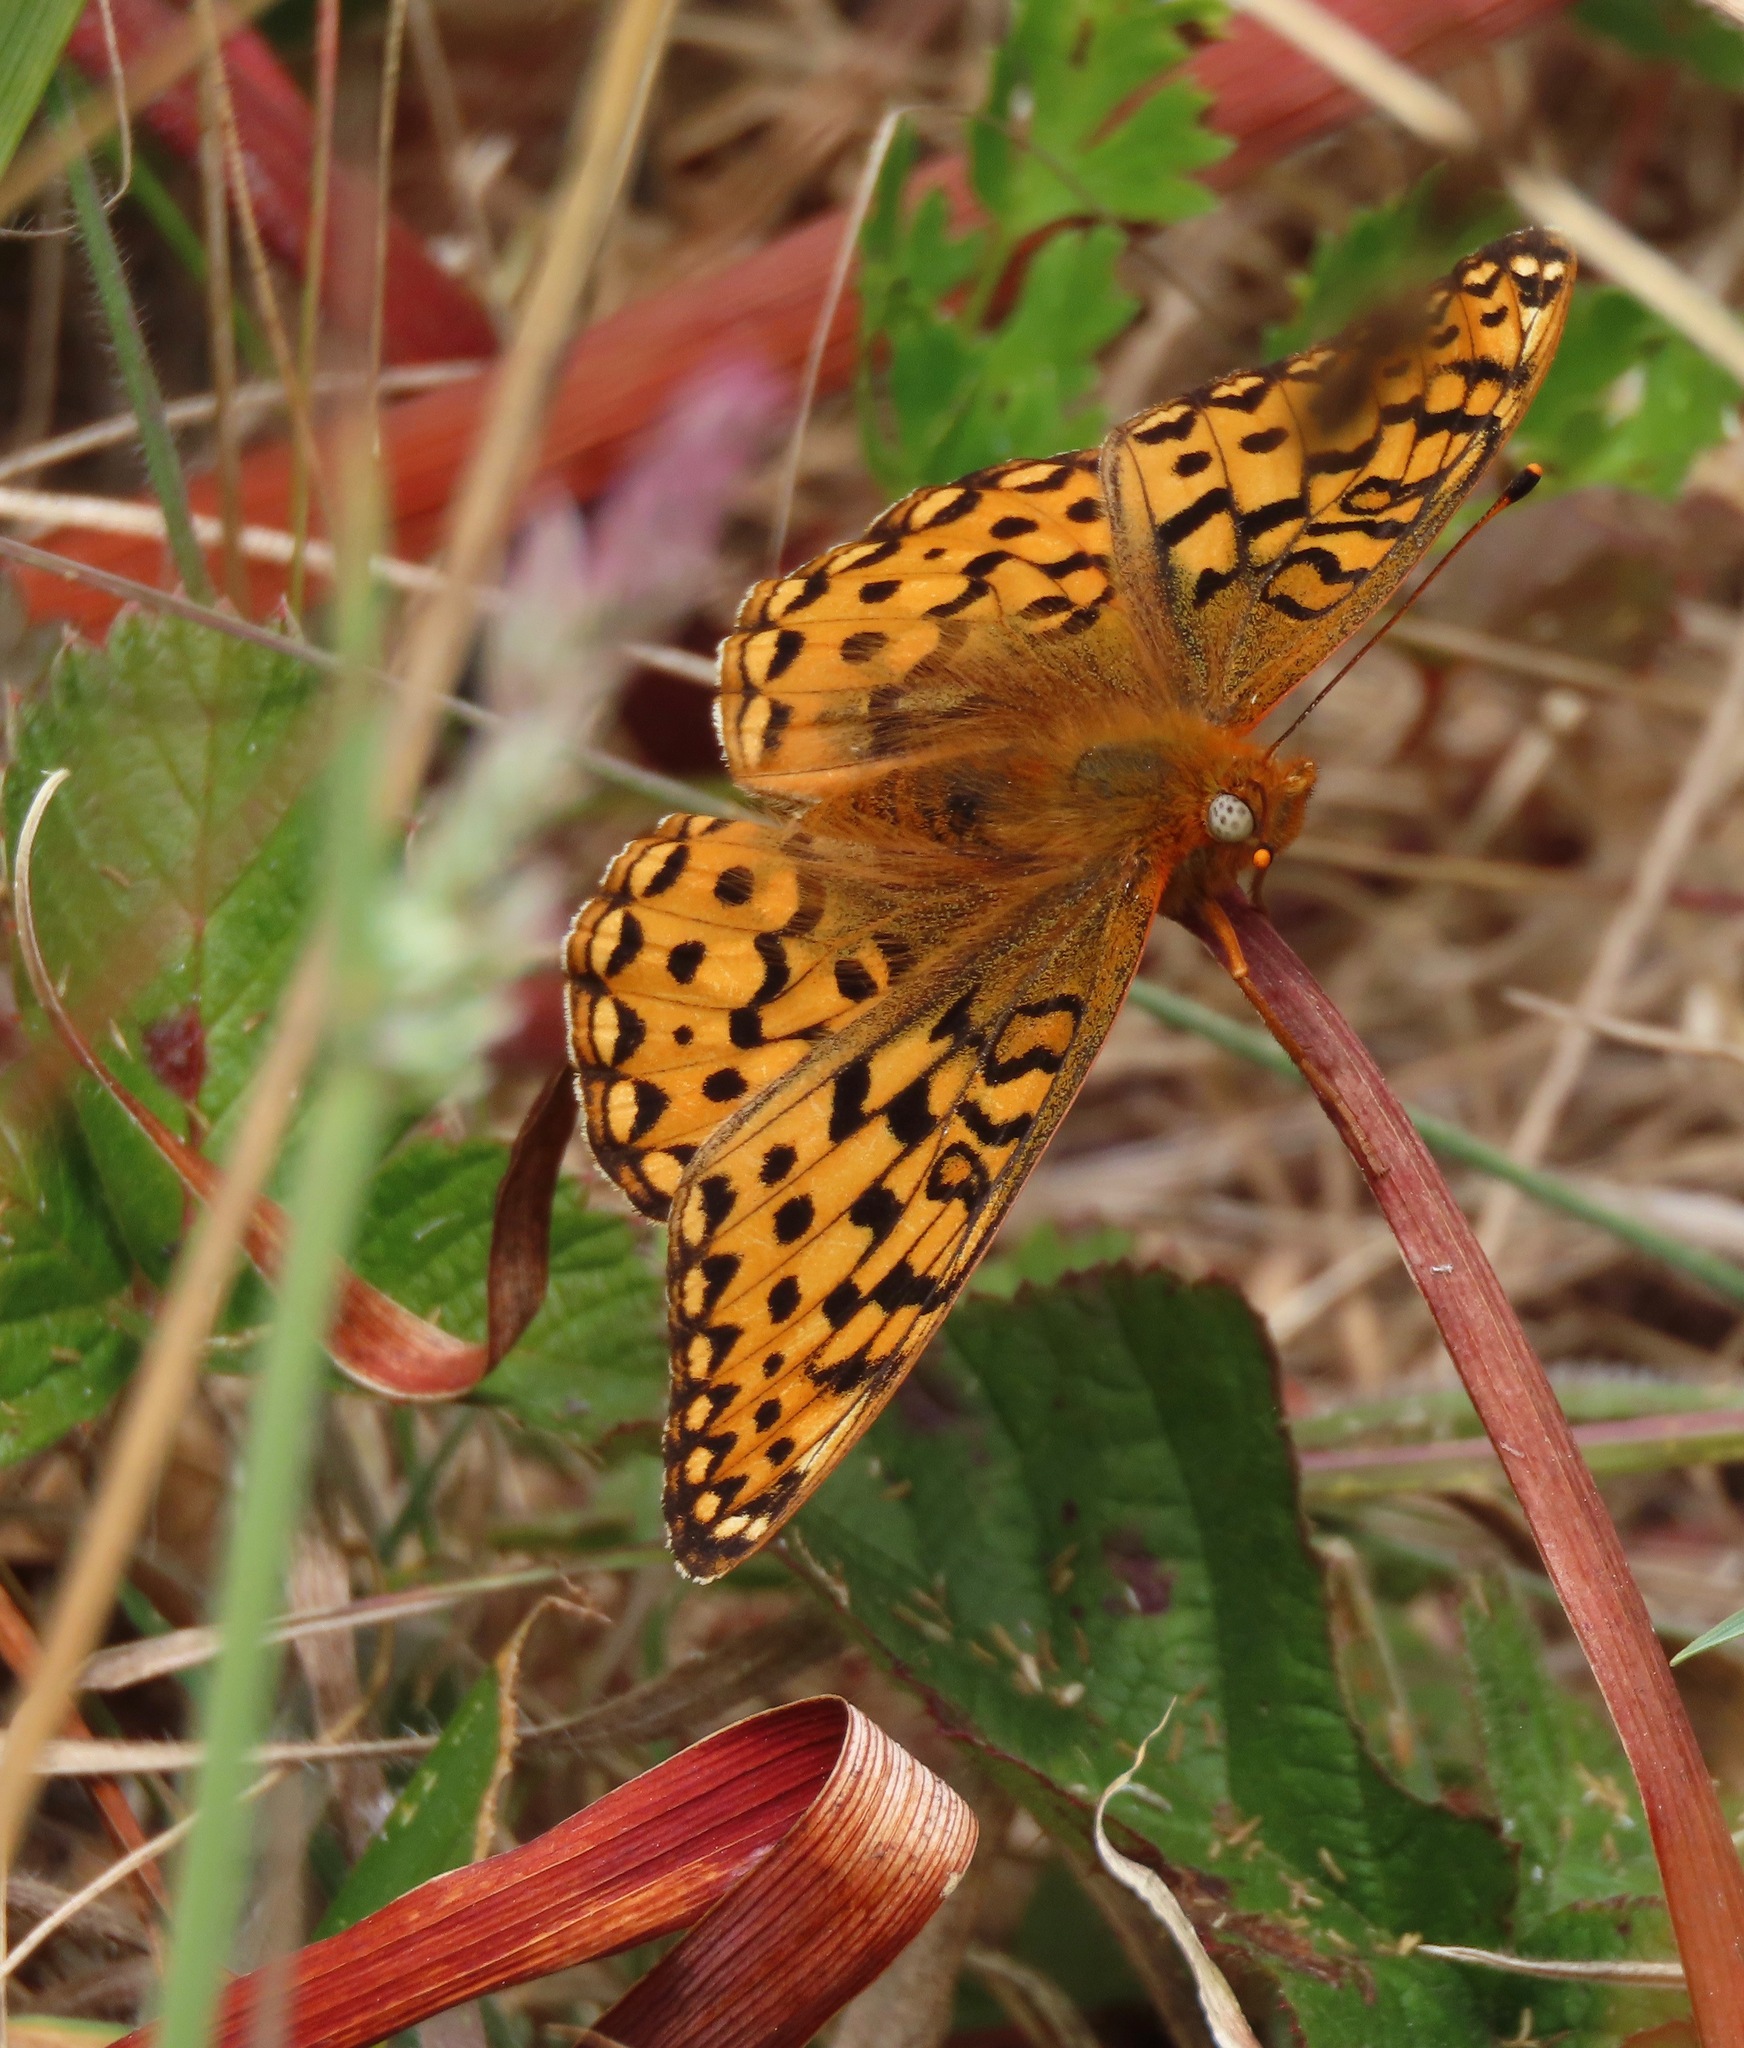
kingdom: Animalia
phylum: Arthropoda
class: Insecta
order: Lepidoptera
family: Nymphalidae
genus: Speyeria
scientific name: Speyeria zerene
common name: Zerene fritillary
